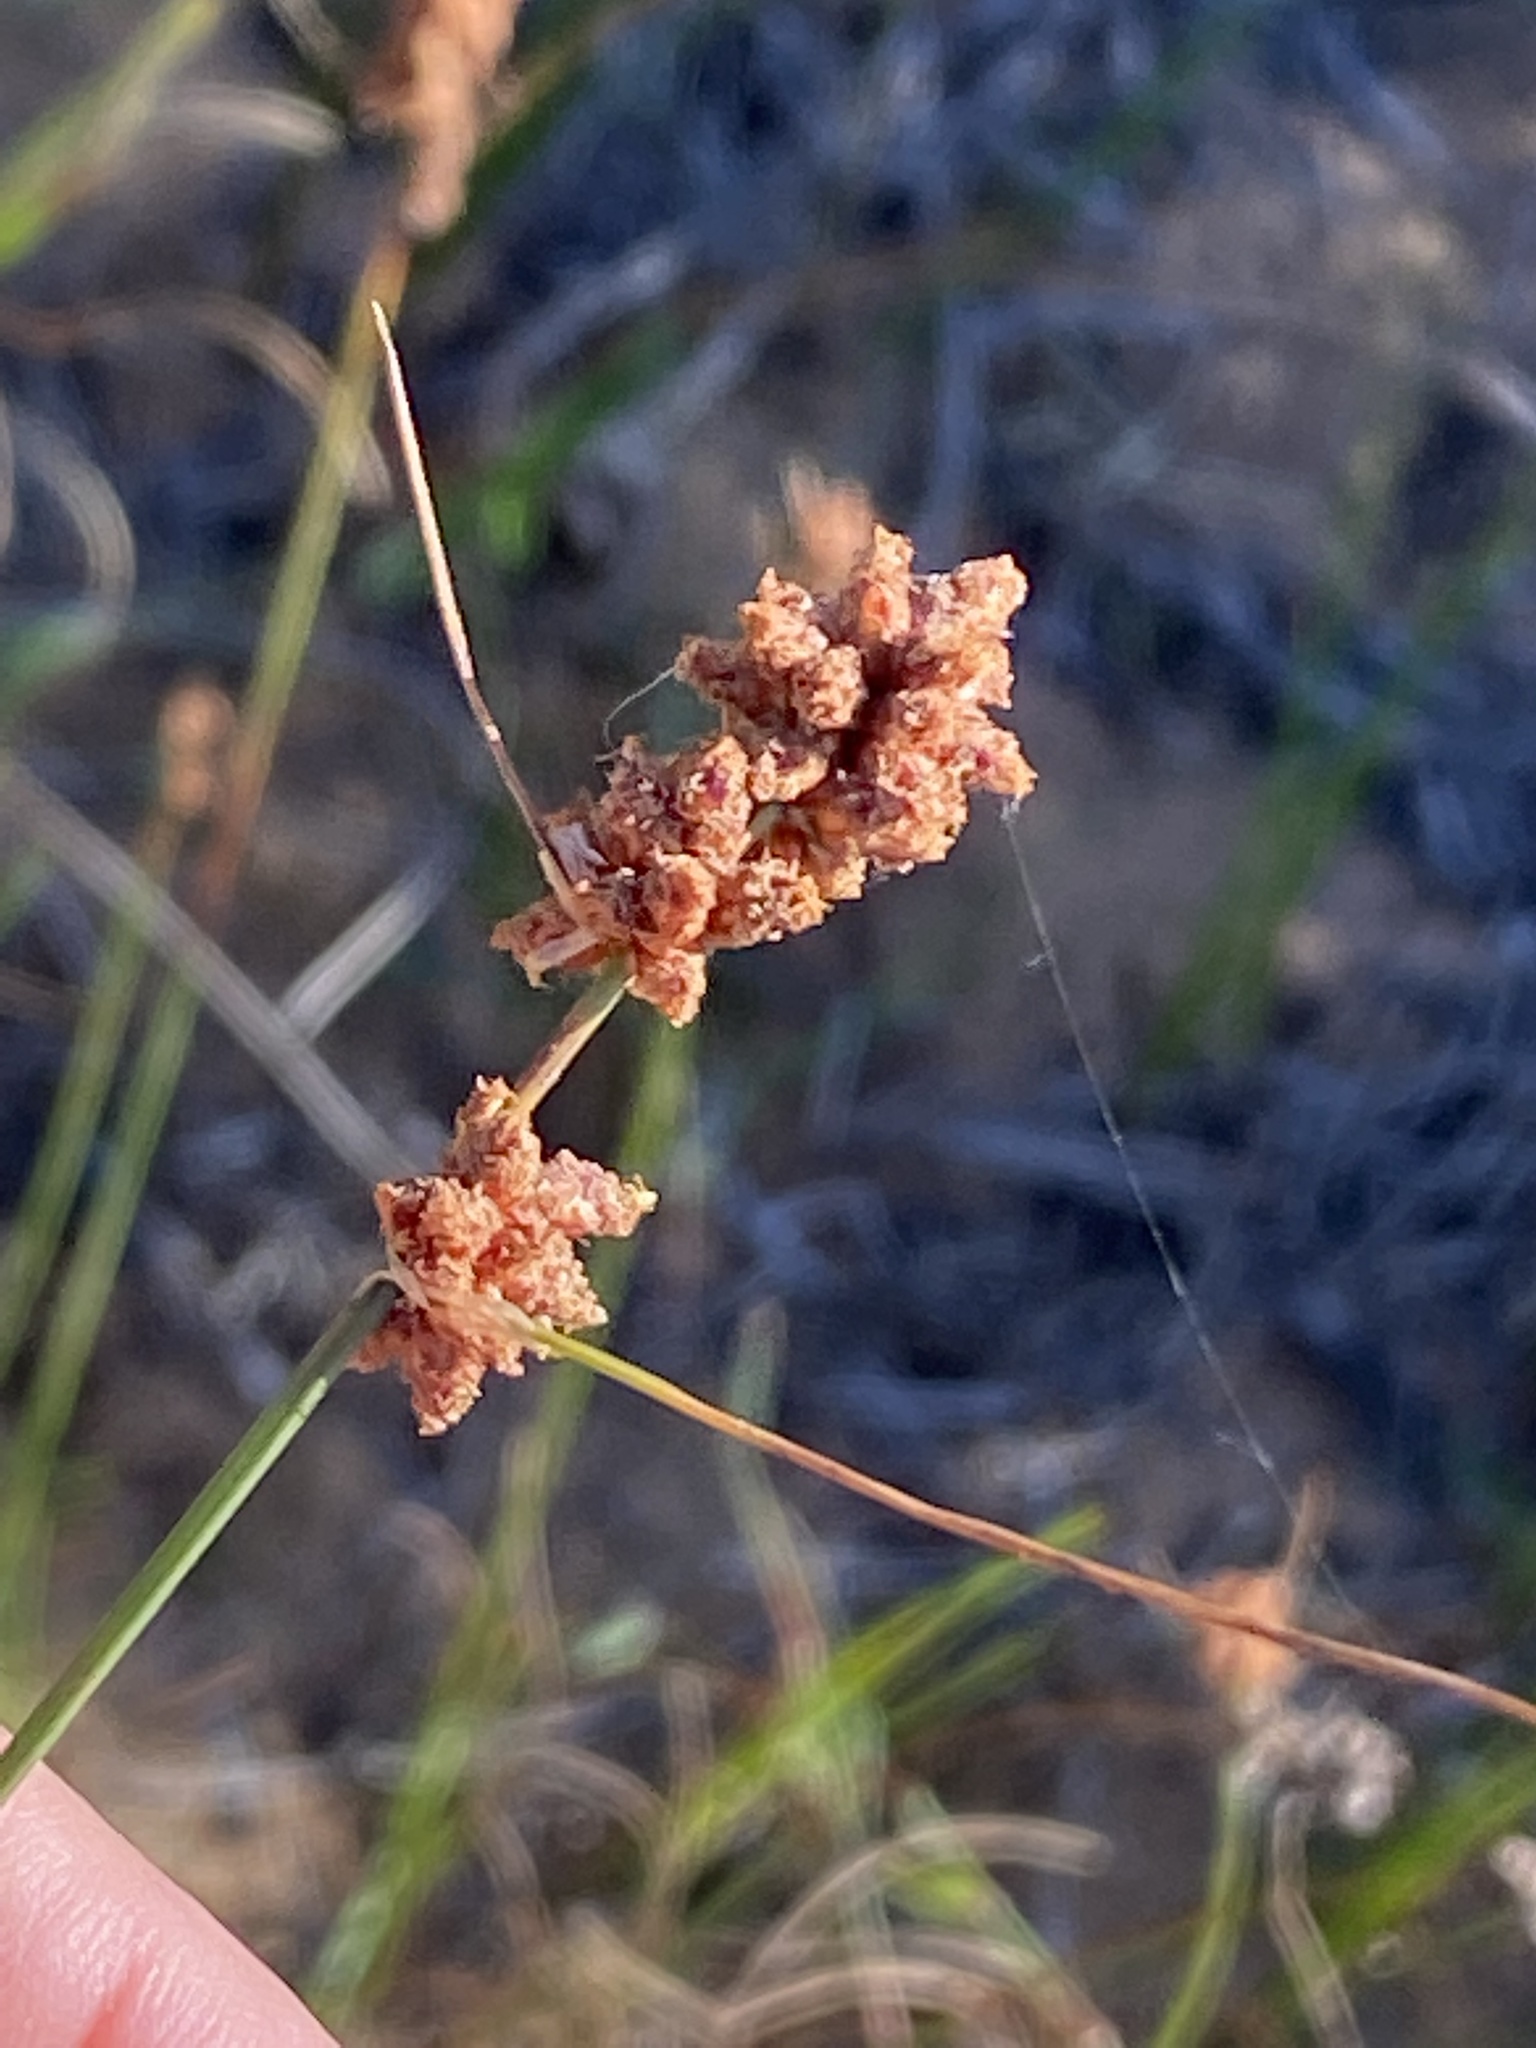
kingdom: Plantae
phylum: Tracheophyta
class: Liliopsida
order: Poales
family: Cyperaceae
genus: Ficinia
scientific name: Ficinia bulbosa
